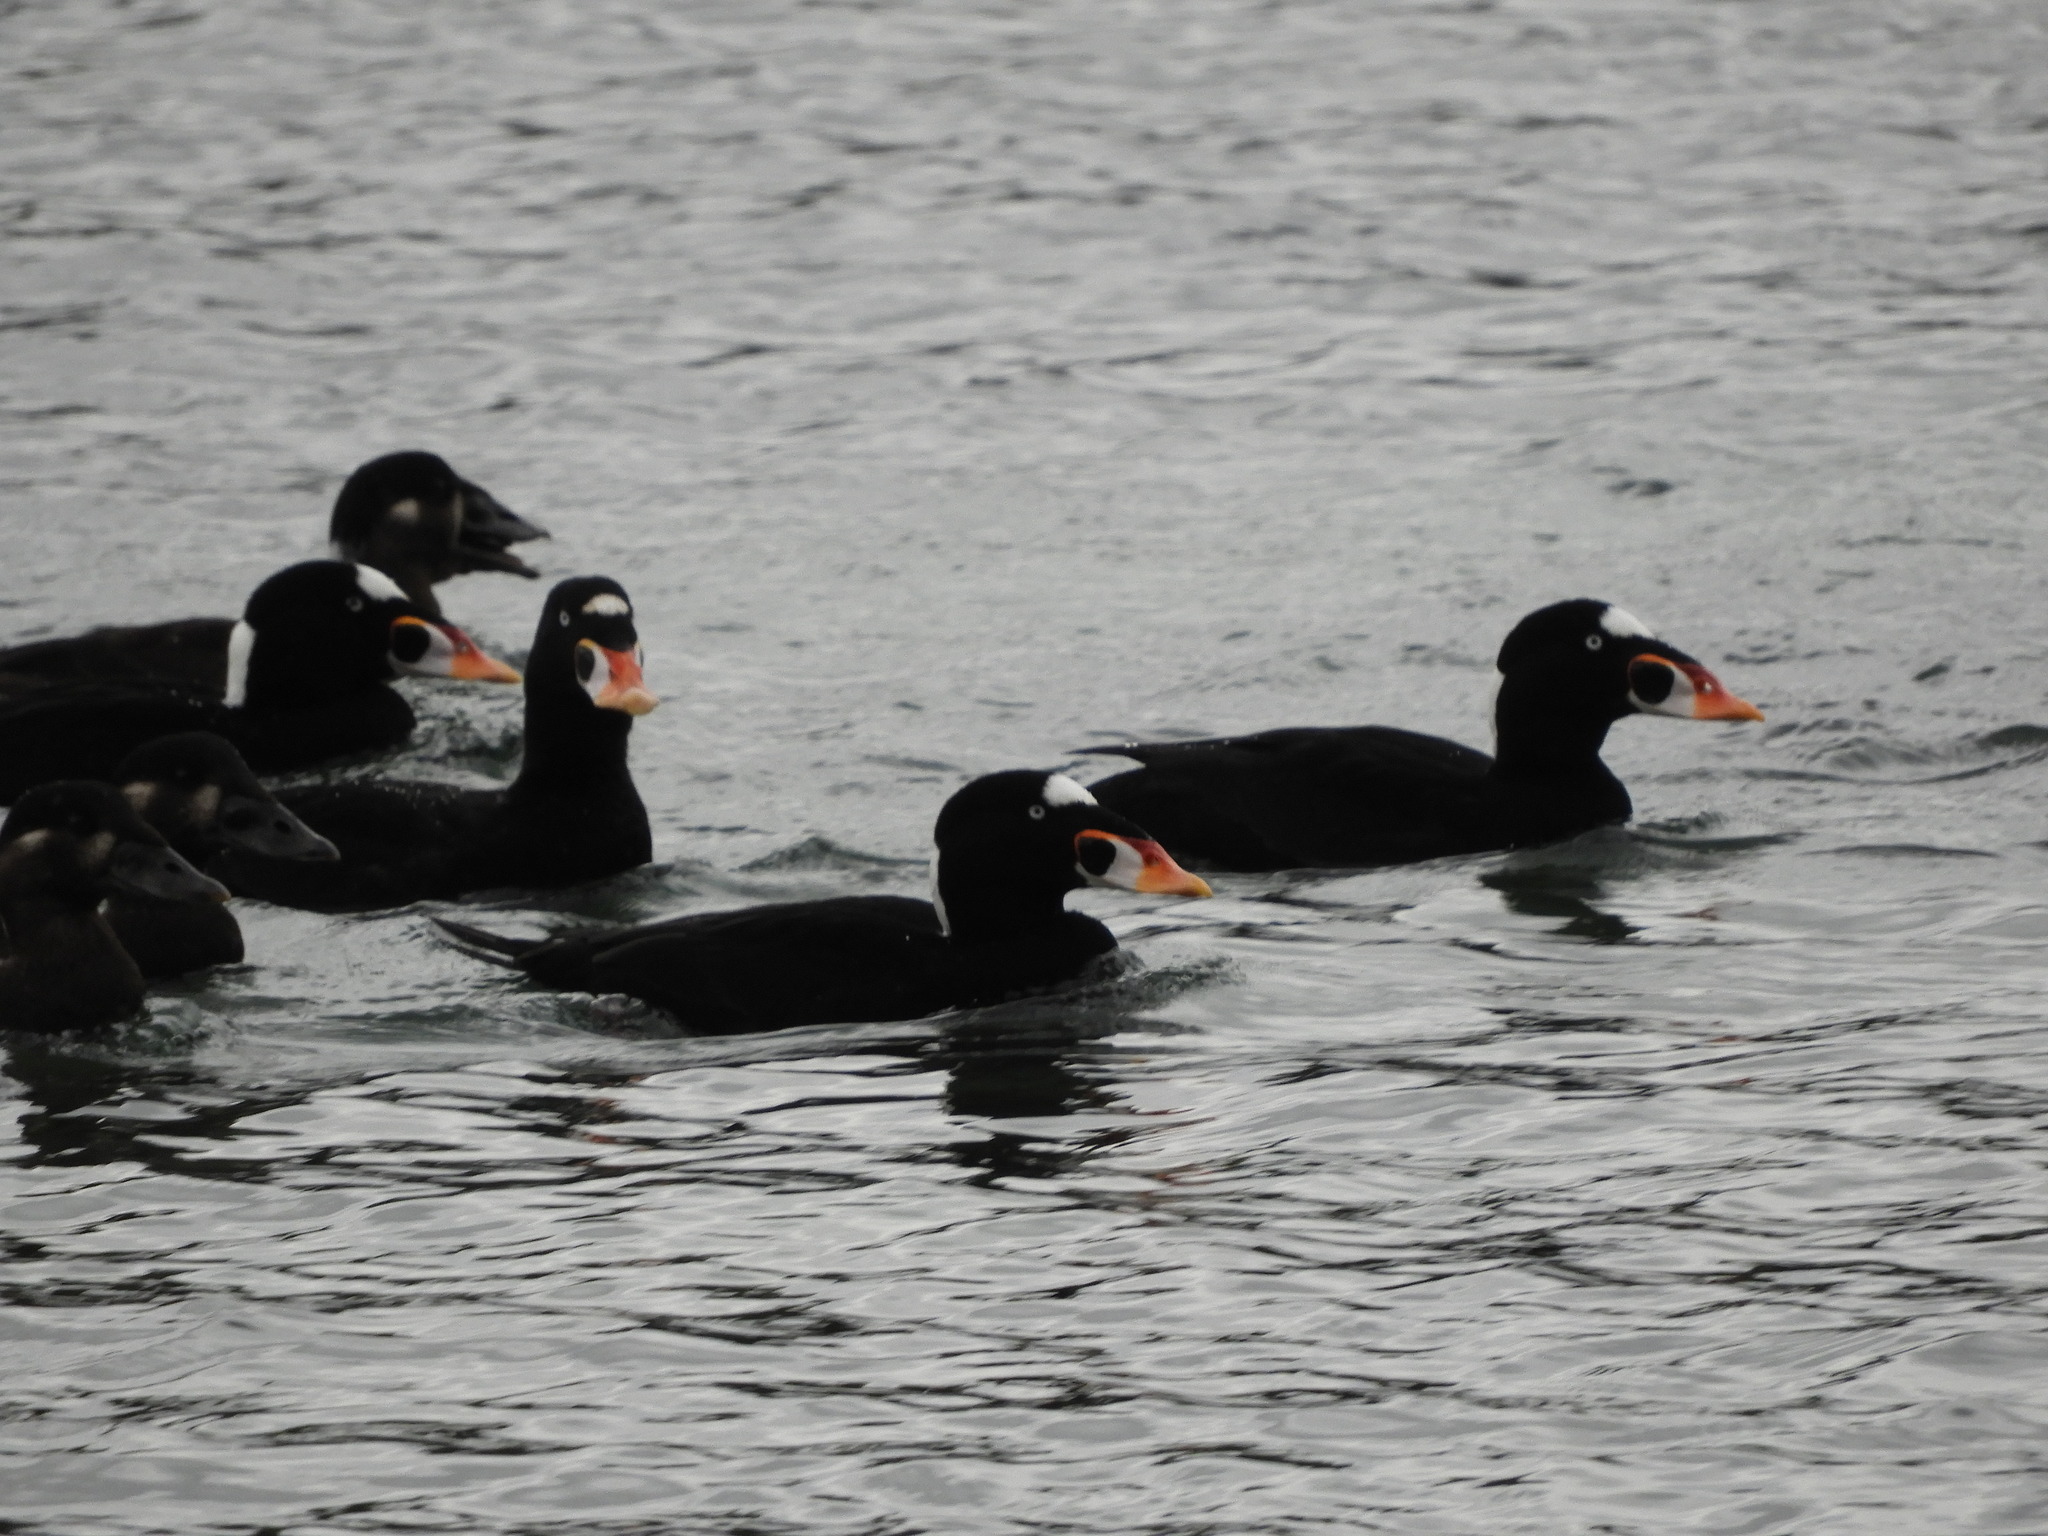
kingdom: Animalia
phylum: Chordata
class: Aves
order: Anseriformes
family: Anatidae
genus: Melanitta
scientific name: Melanitta perspicillata
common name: Surf scoter
